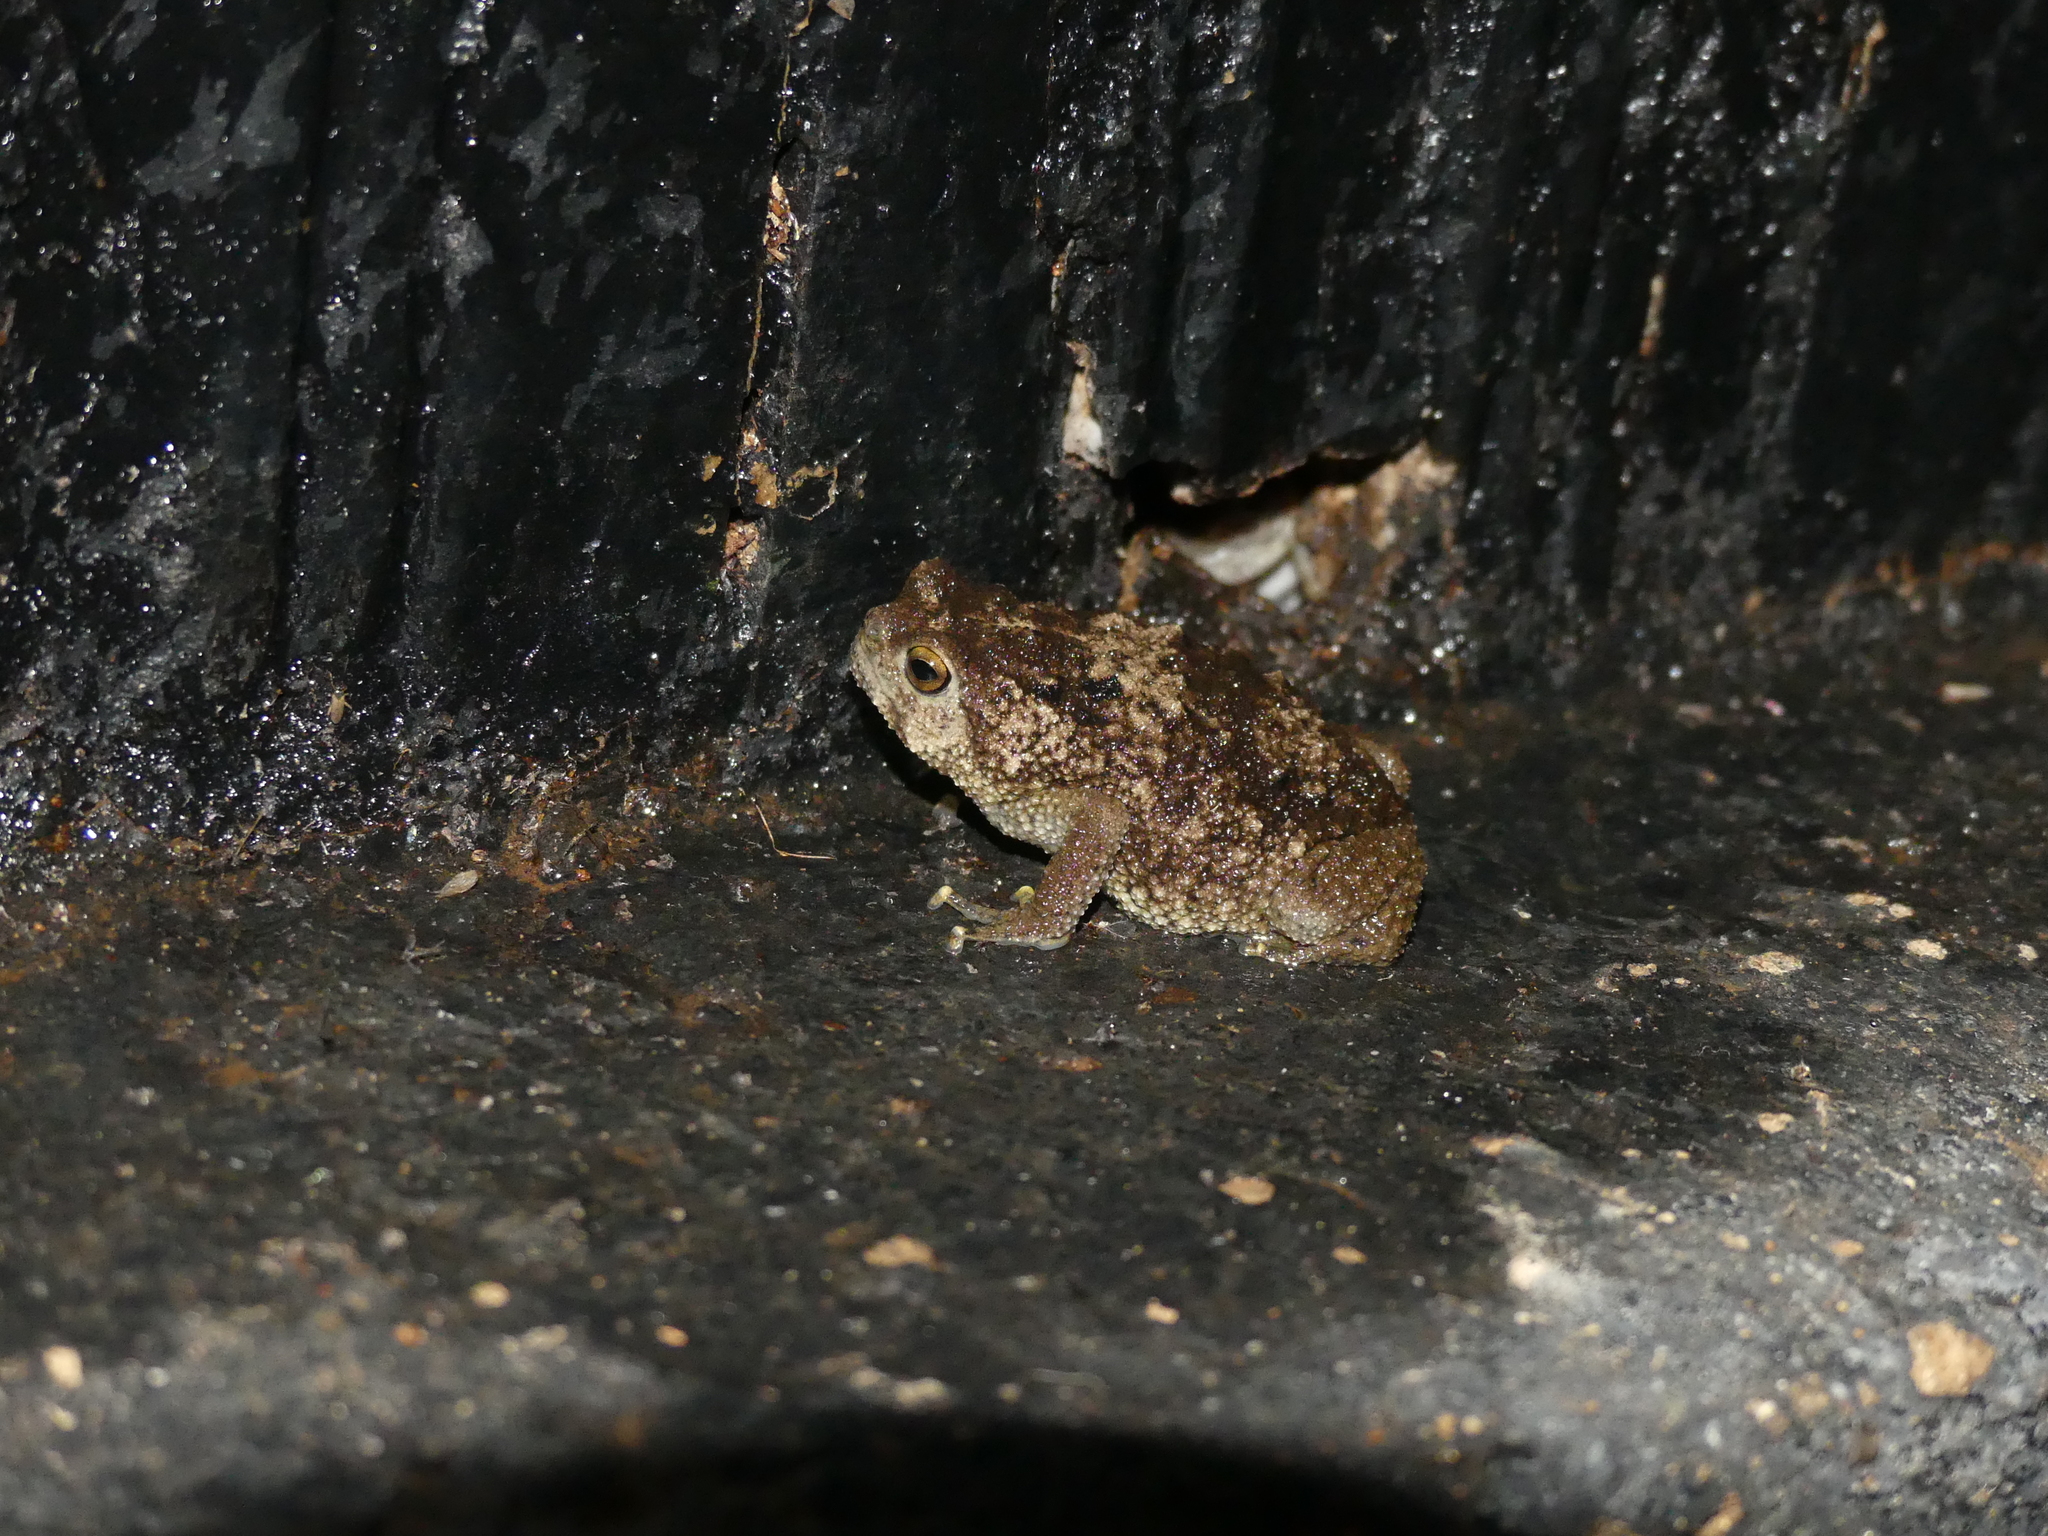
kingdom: Animalia
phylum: Chordata
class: Amphibia
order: Anura
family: Brevicipitidae
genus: Callulina
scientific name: Callulina kreffti
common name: Krefft's warty frog
